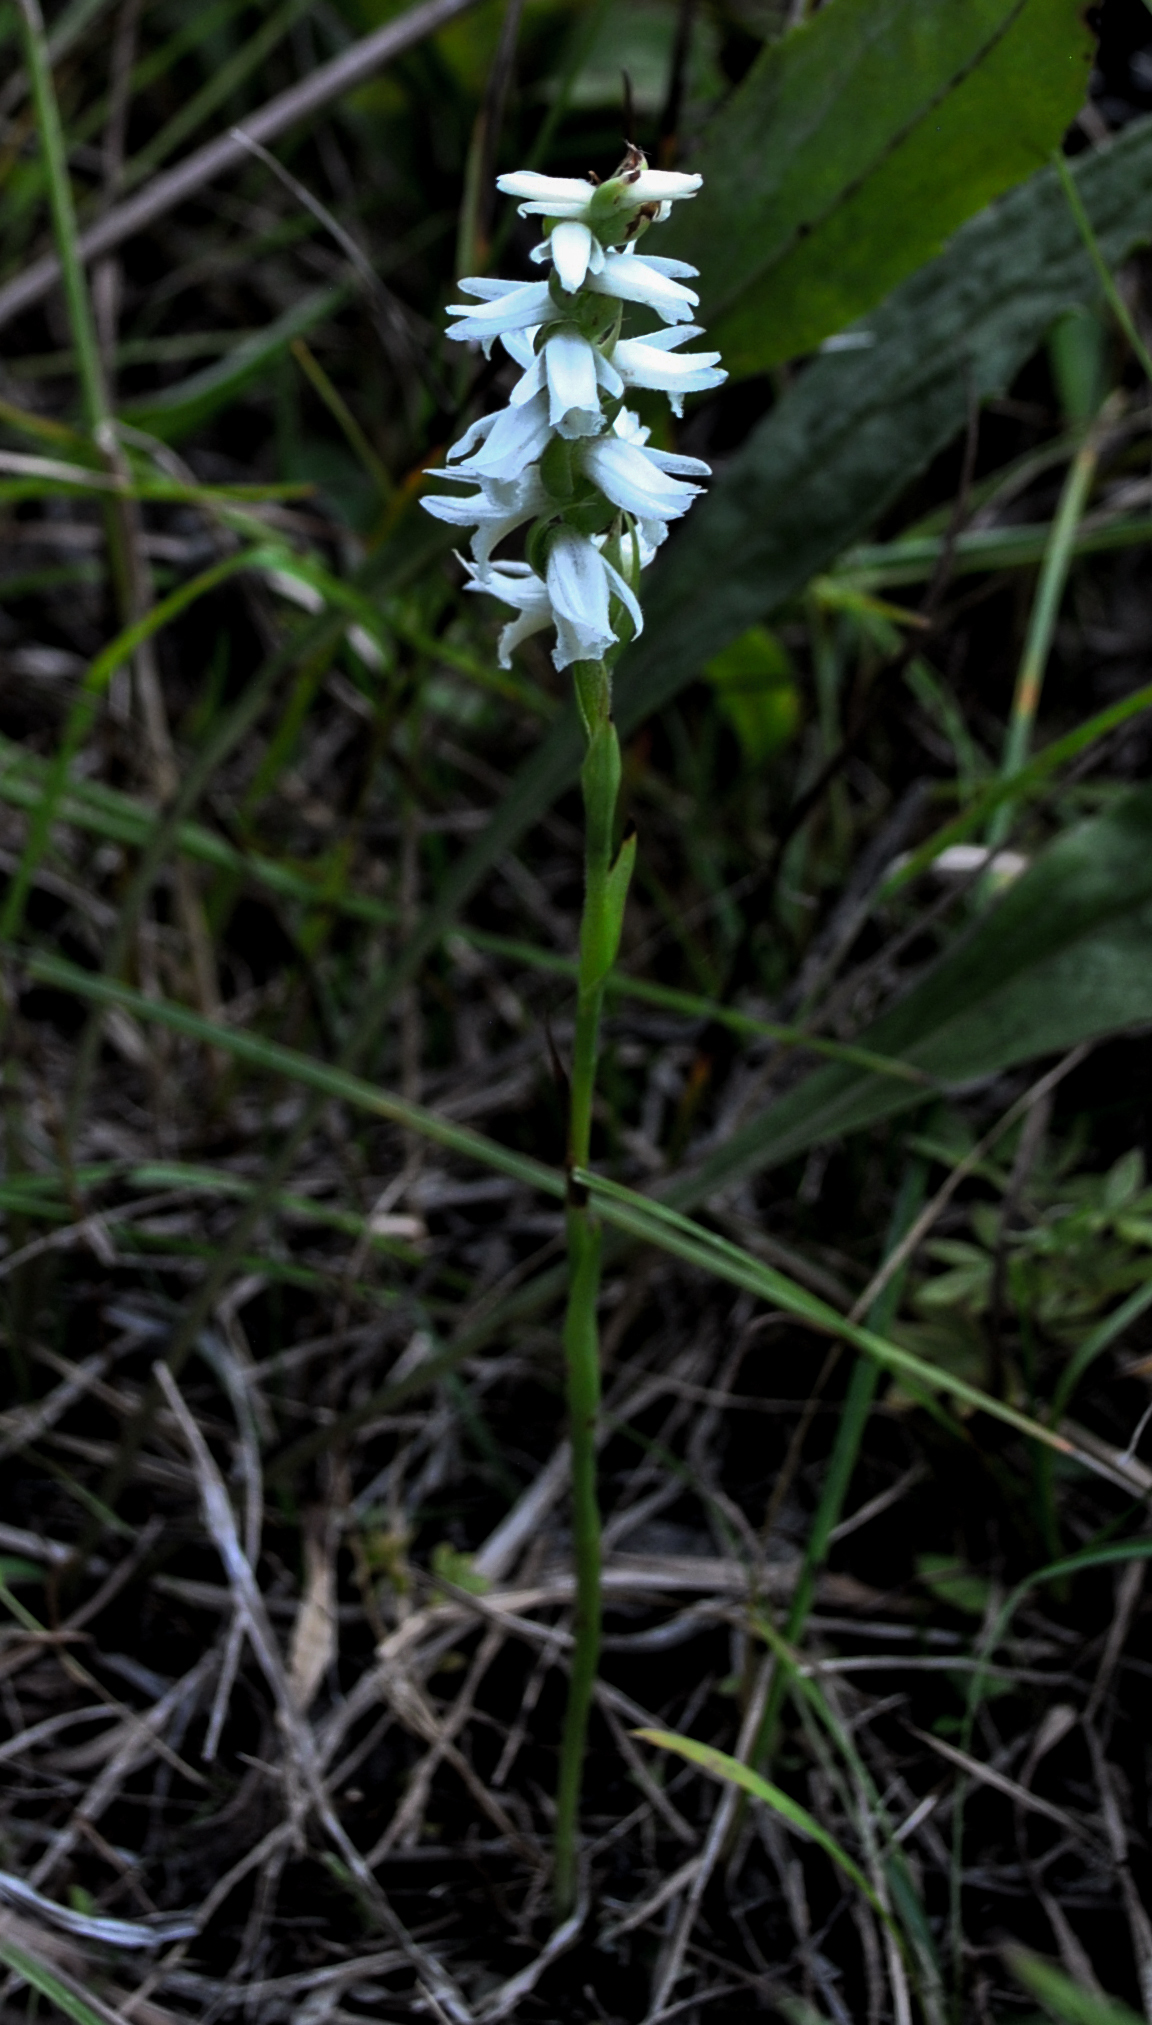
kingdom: Plantae
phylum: Tracheophyta
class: Liliopsida
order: Asparagales
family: Orchidaceae
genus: Spiranthes
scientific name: Spiranthes magnicamporum
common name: Great plains ladies'-tresses
